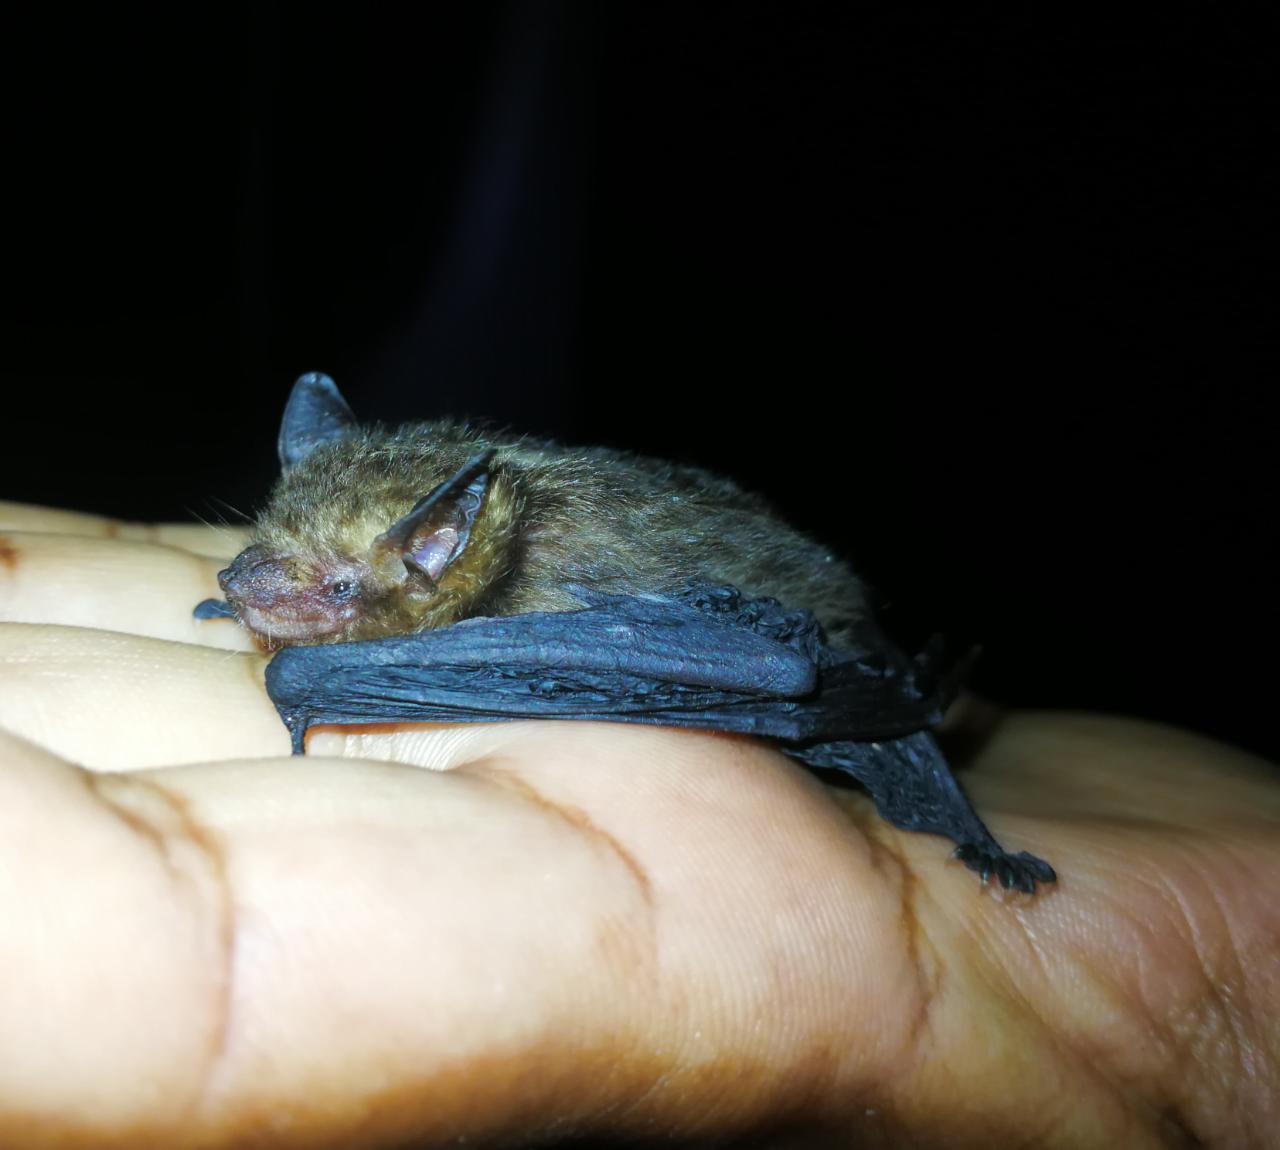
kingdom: Animalia
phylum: Chordata
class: Mammalia
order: Chiroptera
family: Vespertilionidae
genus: Rhogeessa
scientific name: Rhogeessa io
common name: Thomas's yellow bat
